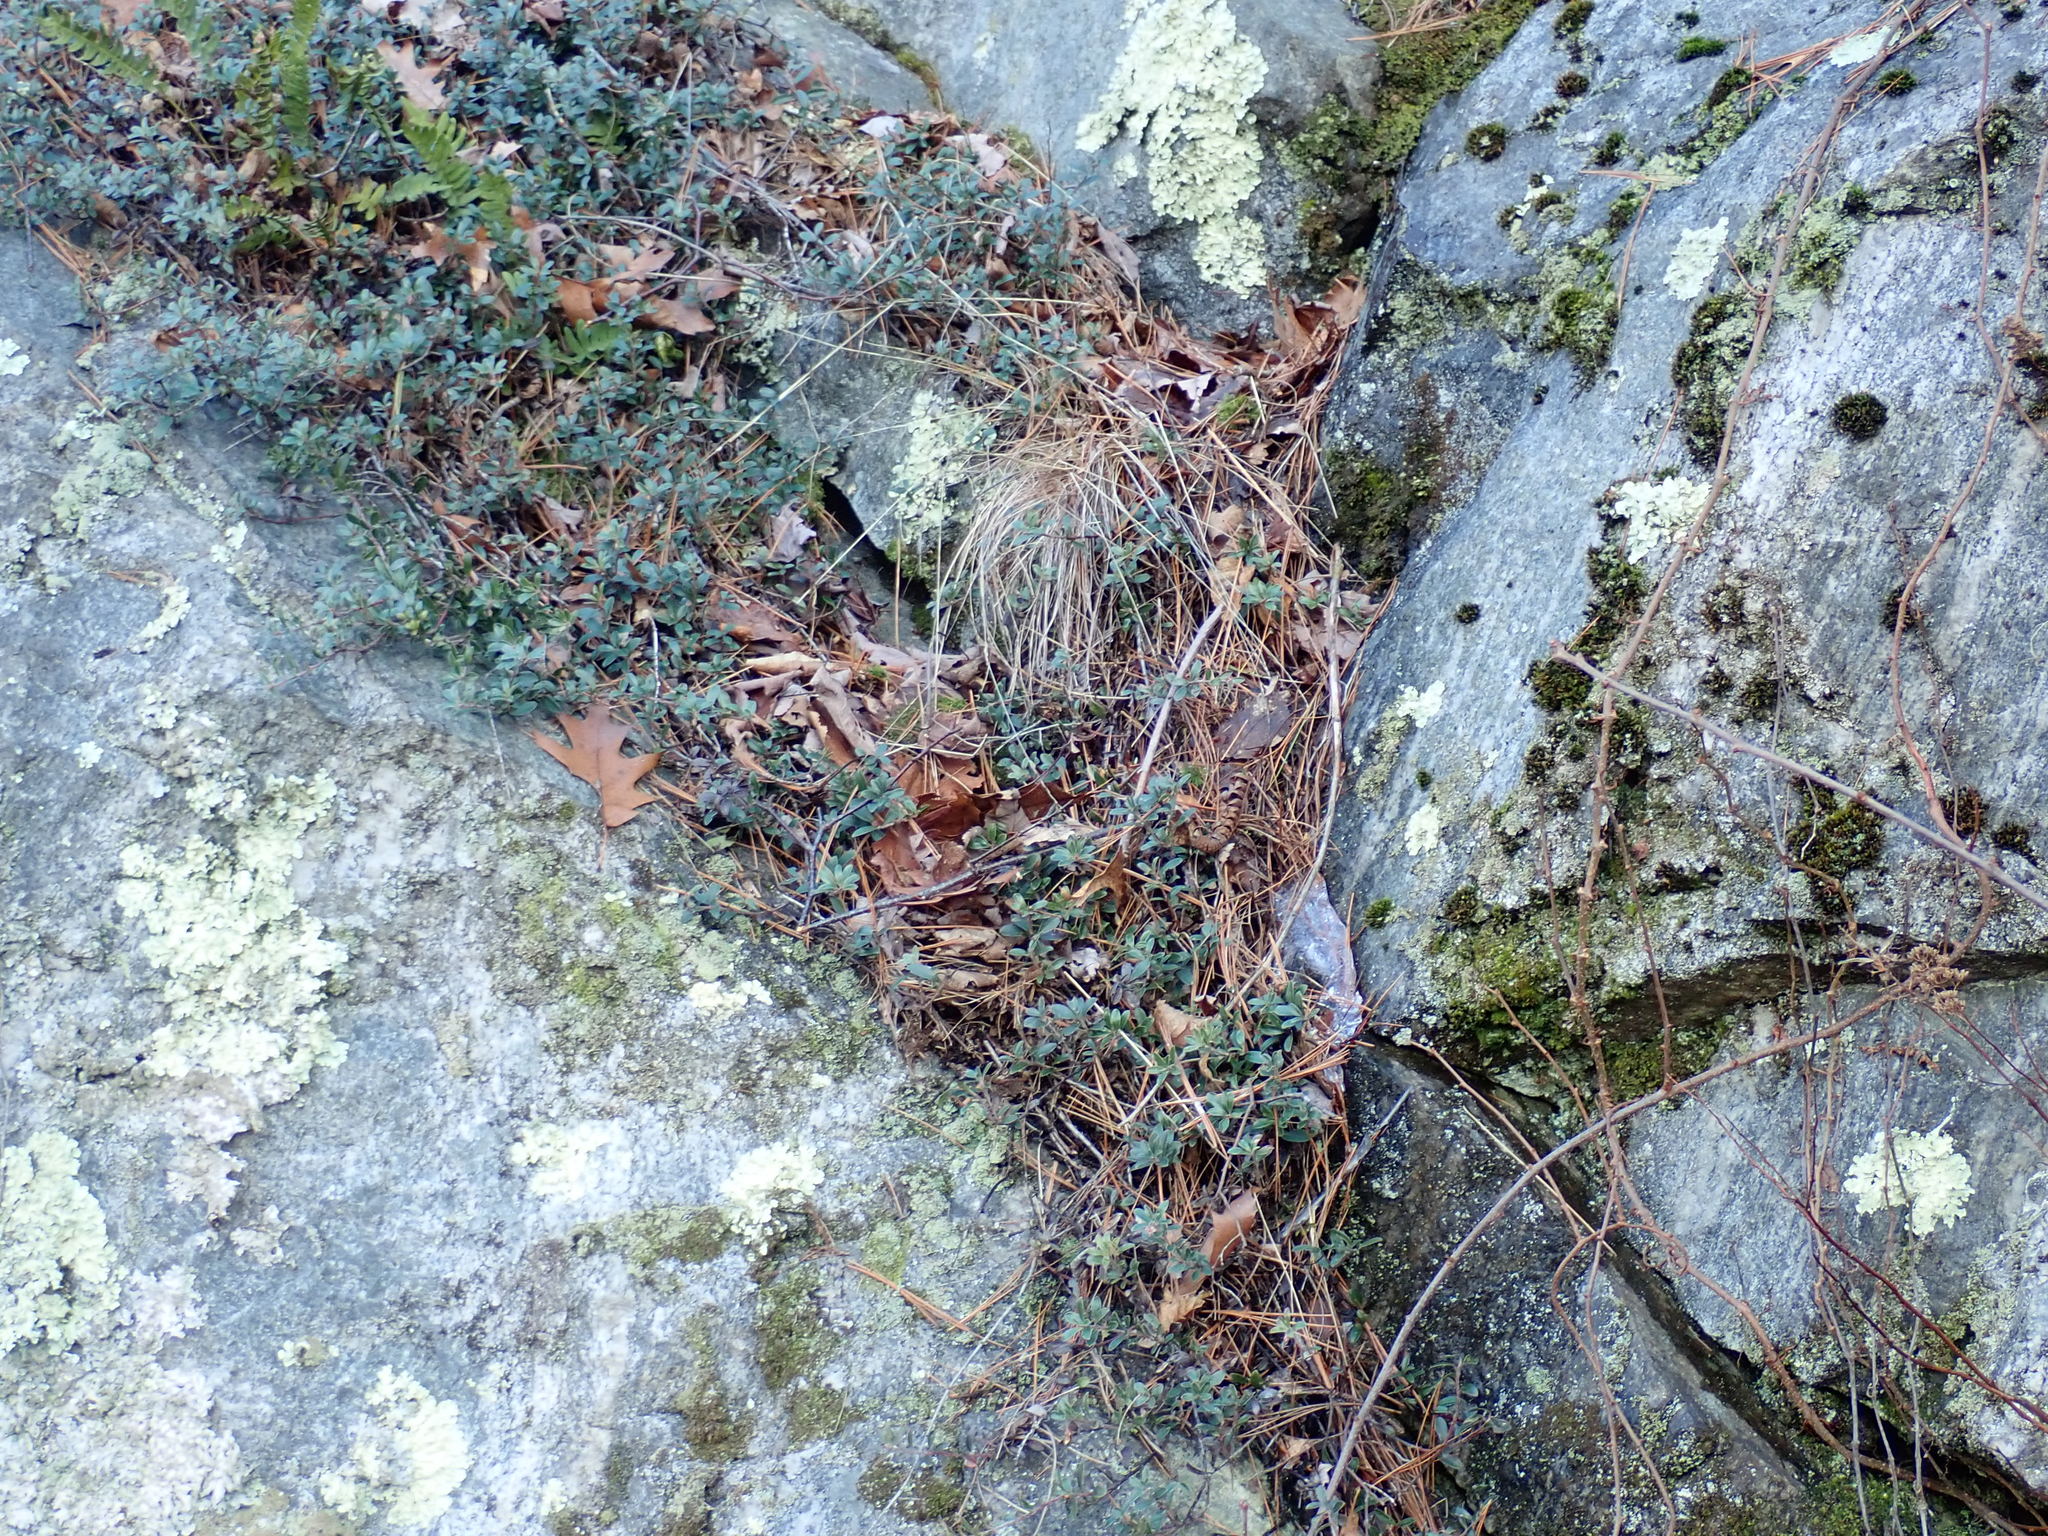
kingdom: Plantae
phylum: Tracheophyta
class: Magnoliopsida
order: Ericales
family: Ericaceae
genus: Arctostaphylos
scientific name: Arctostaphylos uva-ursi
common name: Bearberry
